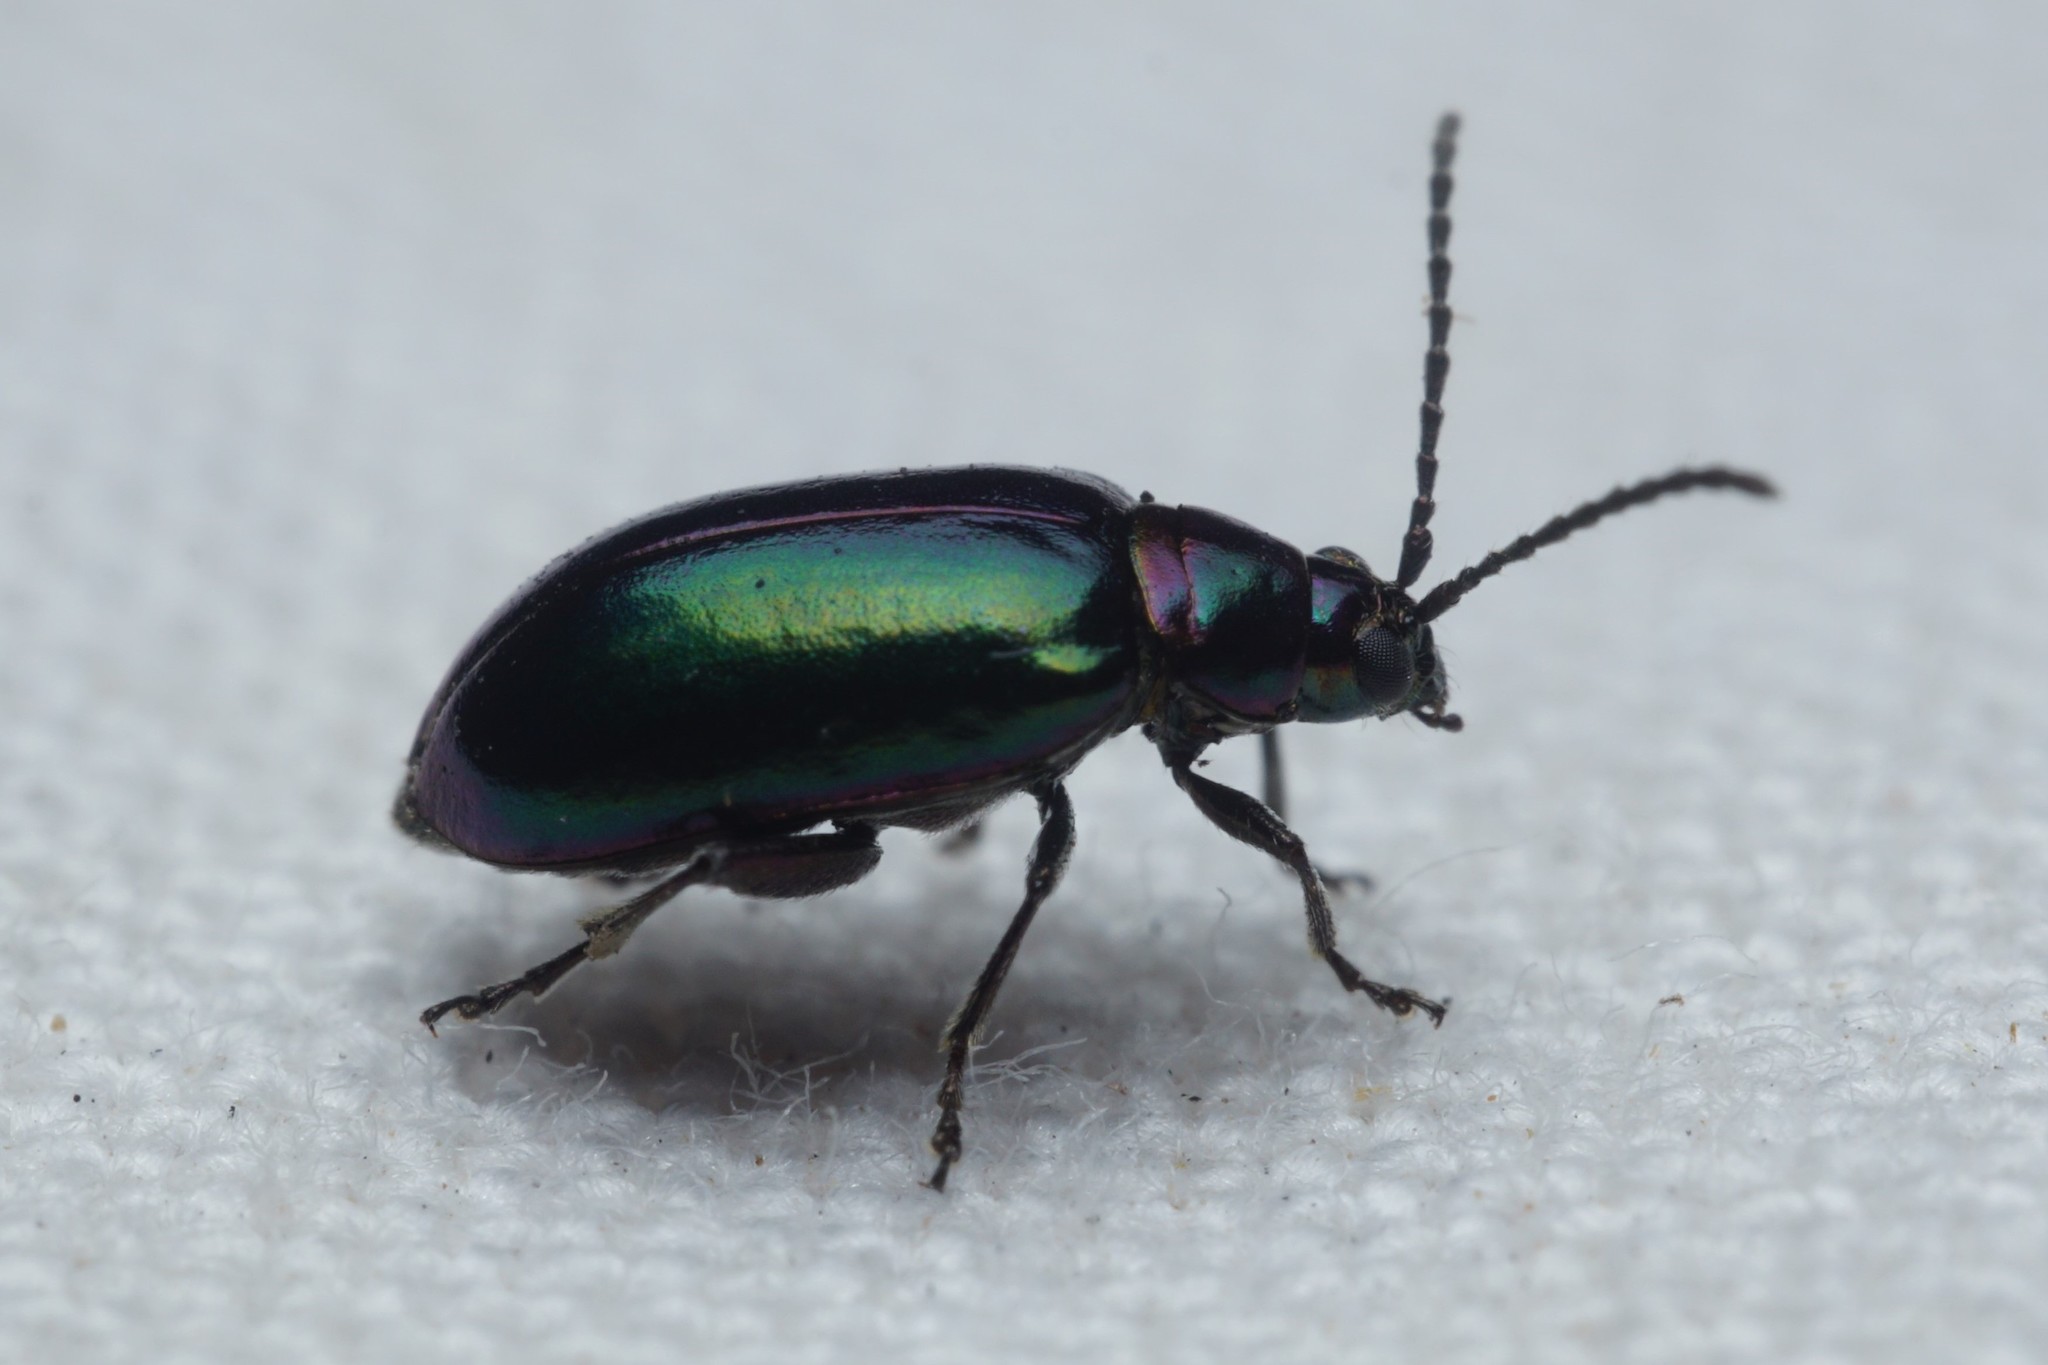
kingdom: Animalia
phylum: Arthropoda
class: Insecta
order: Coleoptera
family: Chrysomelidae
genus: Altica
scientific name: Altica torquata
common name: Leaf beetle
